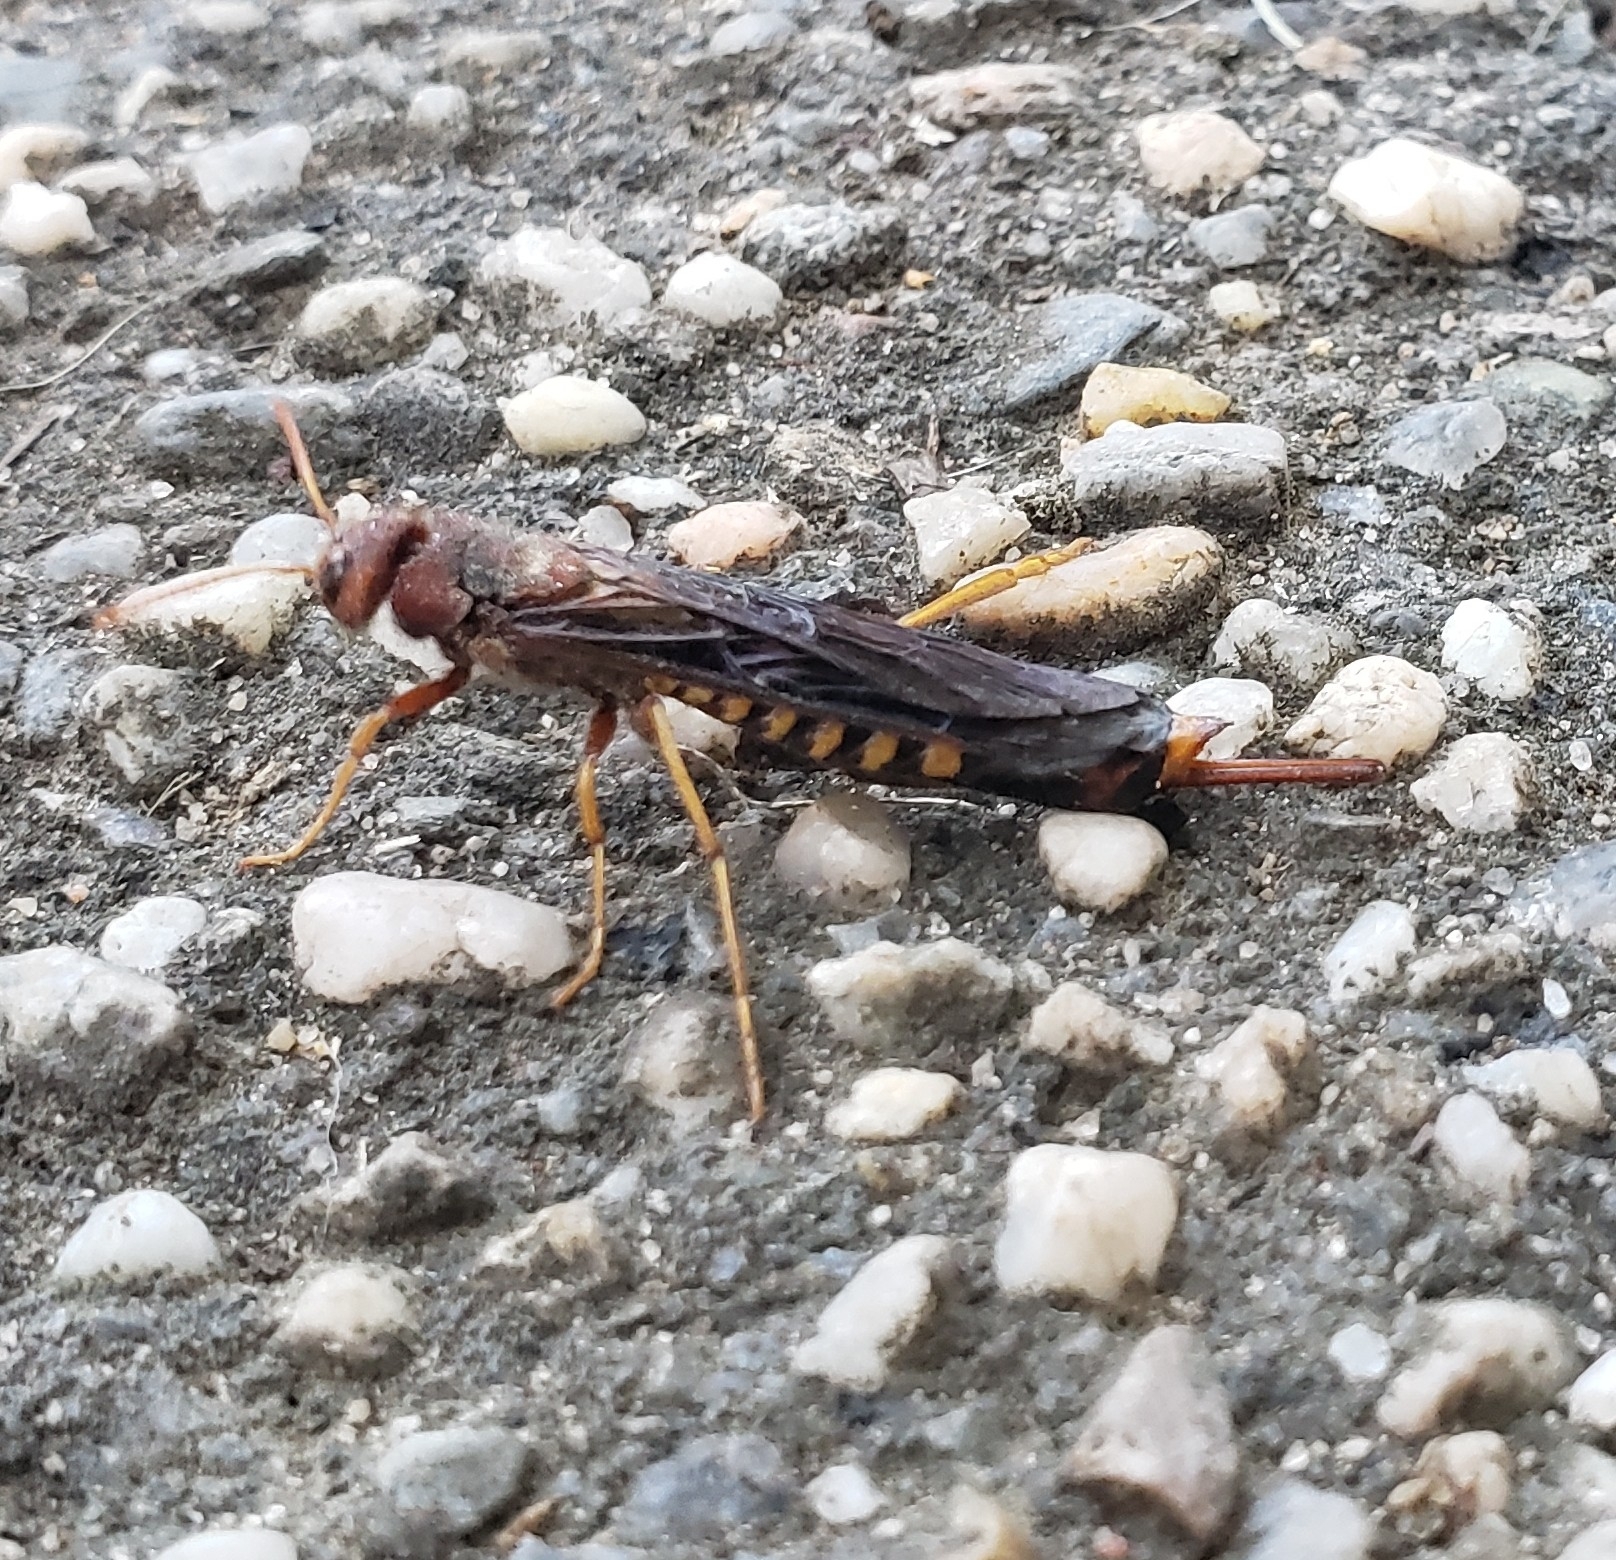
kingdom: Animalia
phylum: Arthropoda
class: Insecta
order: Hymenoptera
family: Siricidae
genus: Tremex
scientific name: Tremex columba
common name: Wasp
